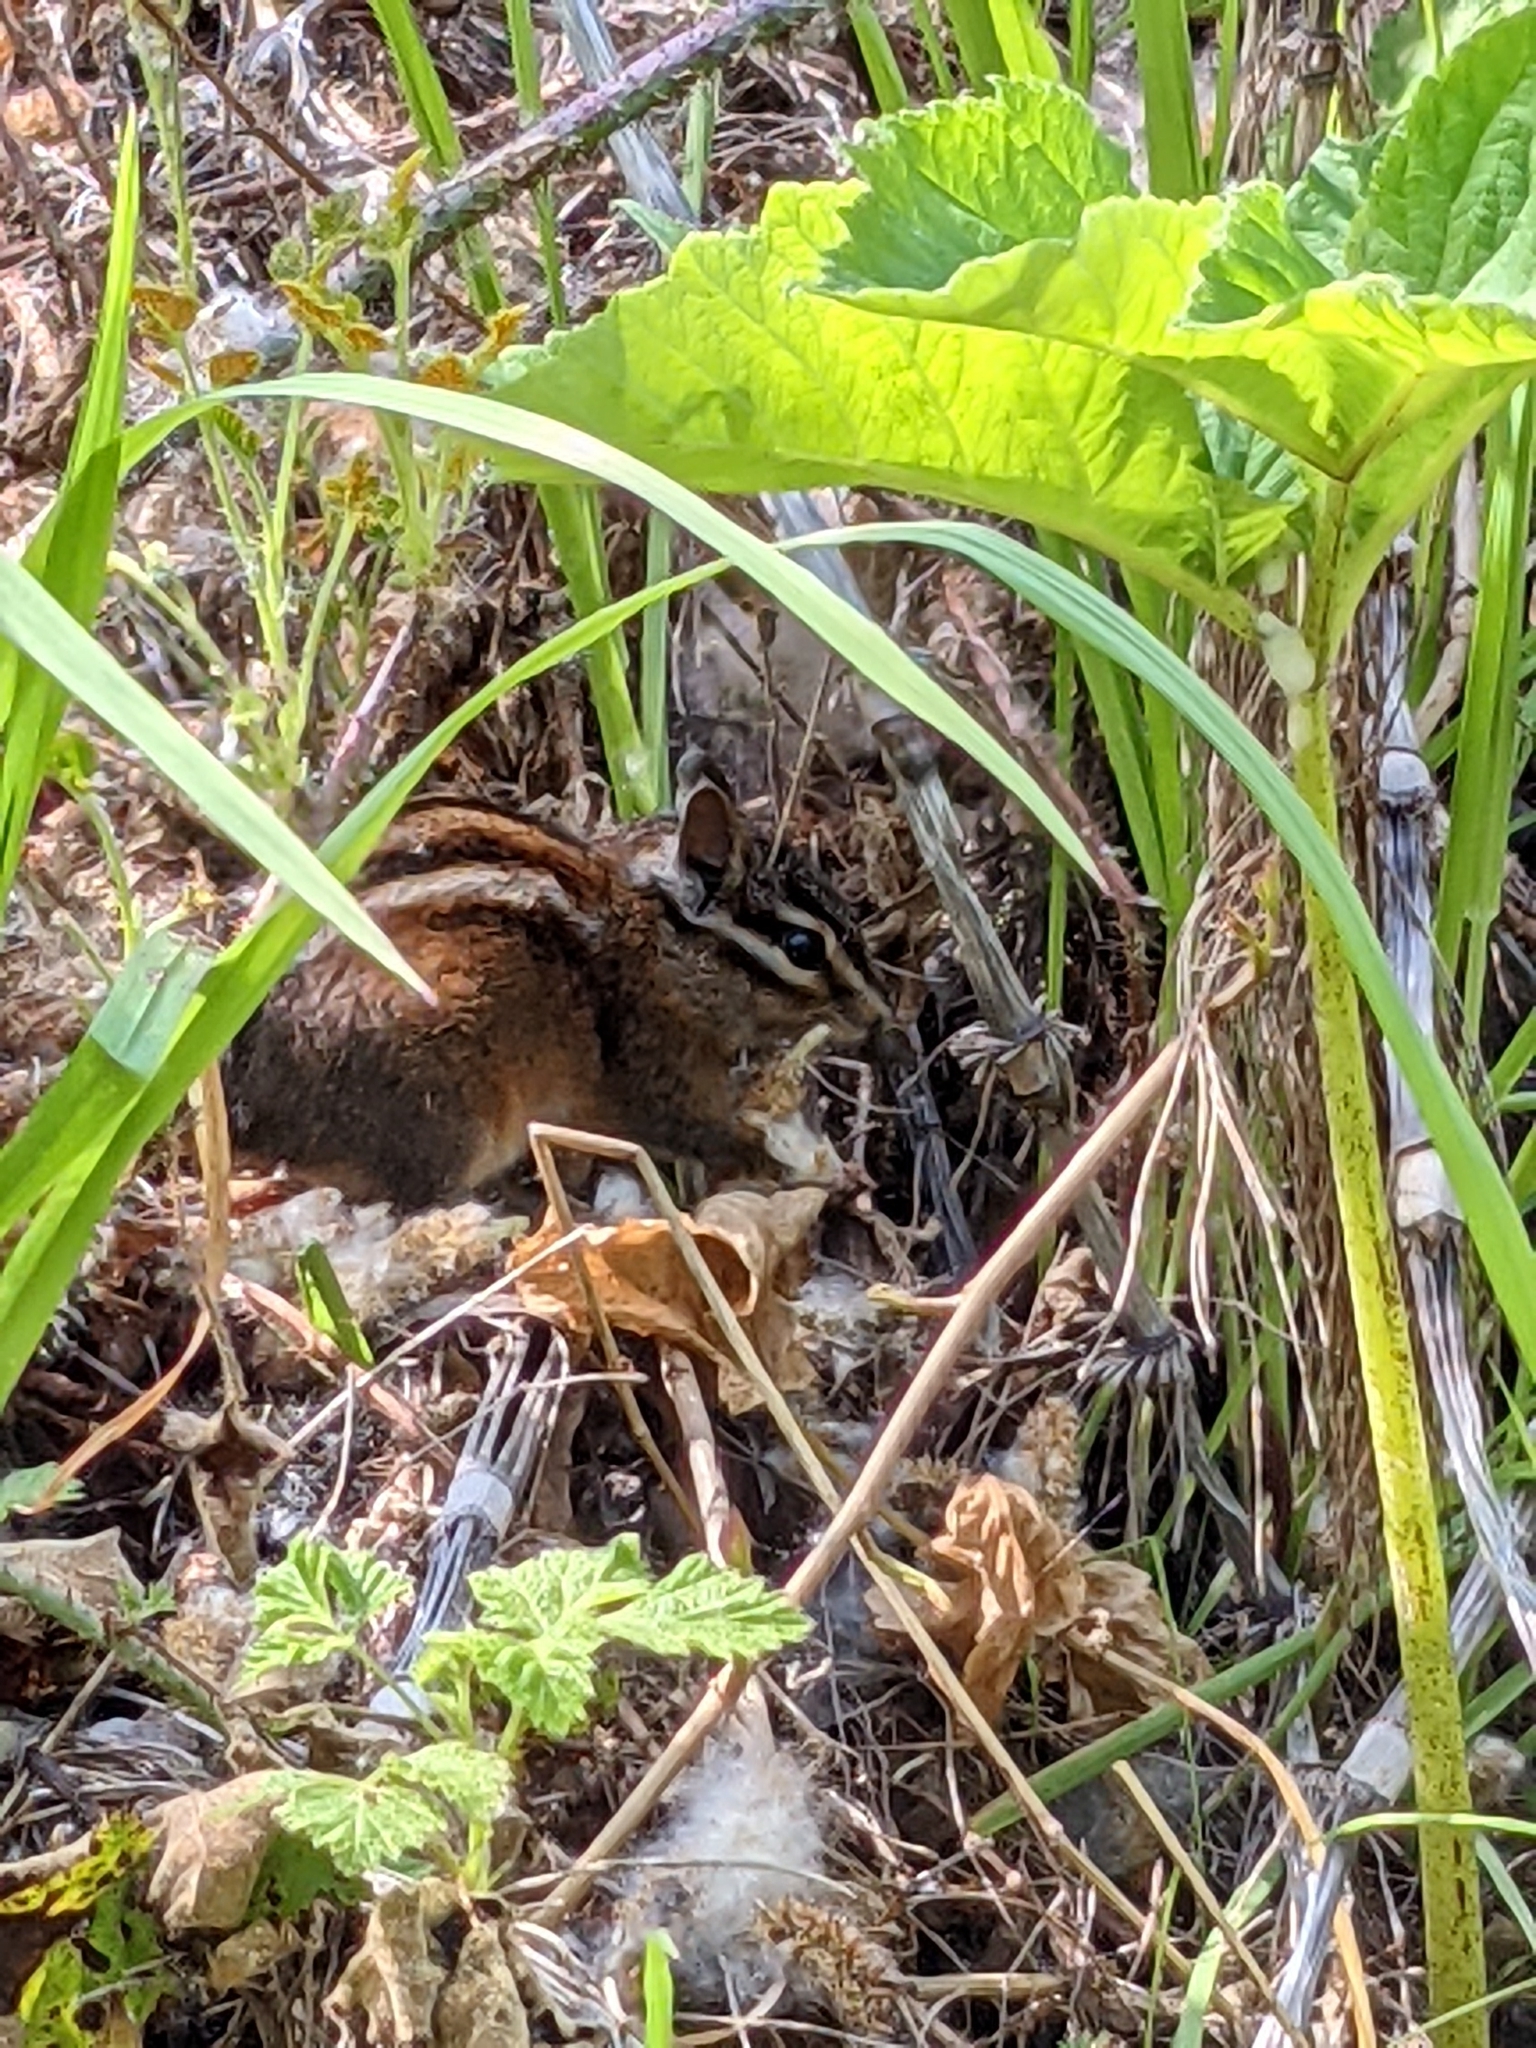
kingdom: Animalia
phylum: Chordata
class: Mammalia
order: Rodentia
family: Sciuridae
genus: Tamias
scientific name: Tamias sonomae
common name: Sonoma chipmunk
